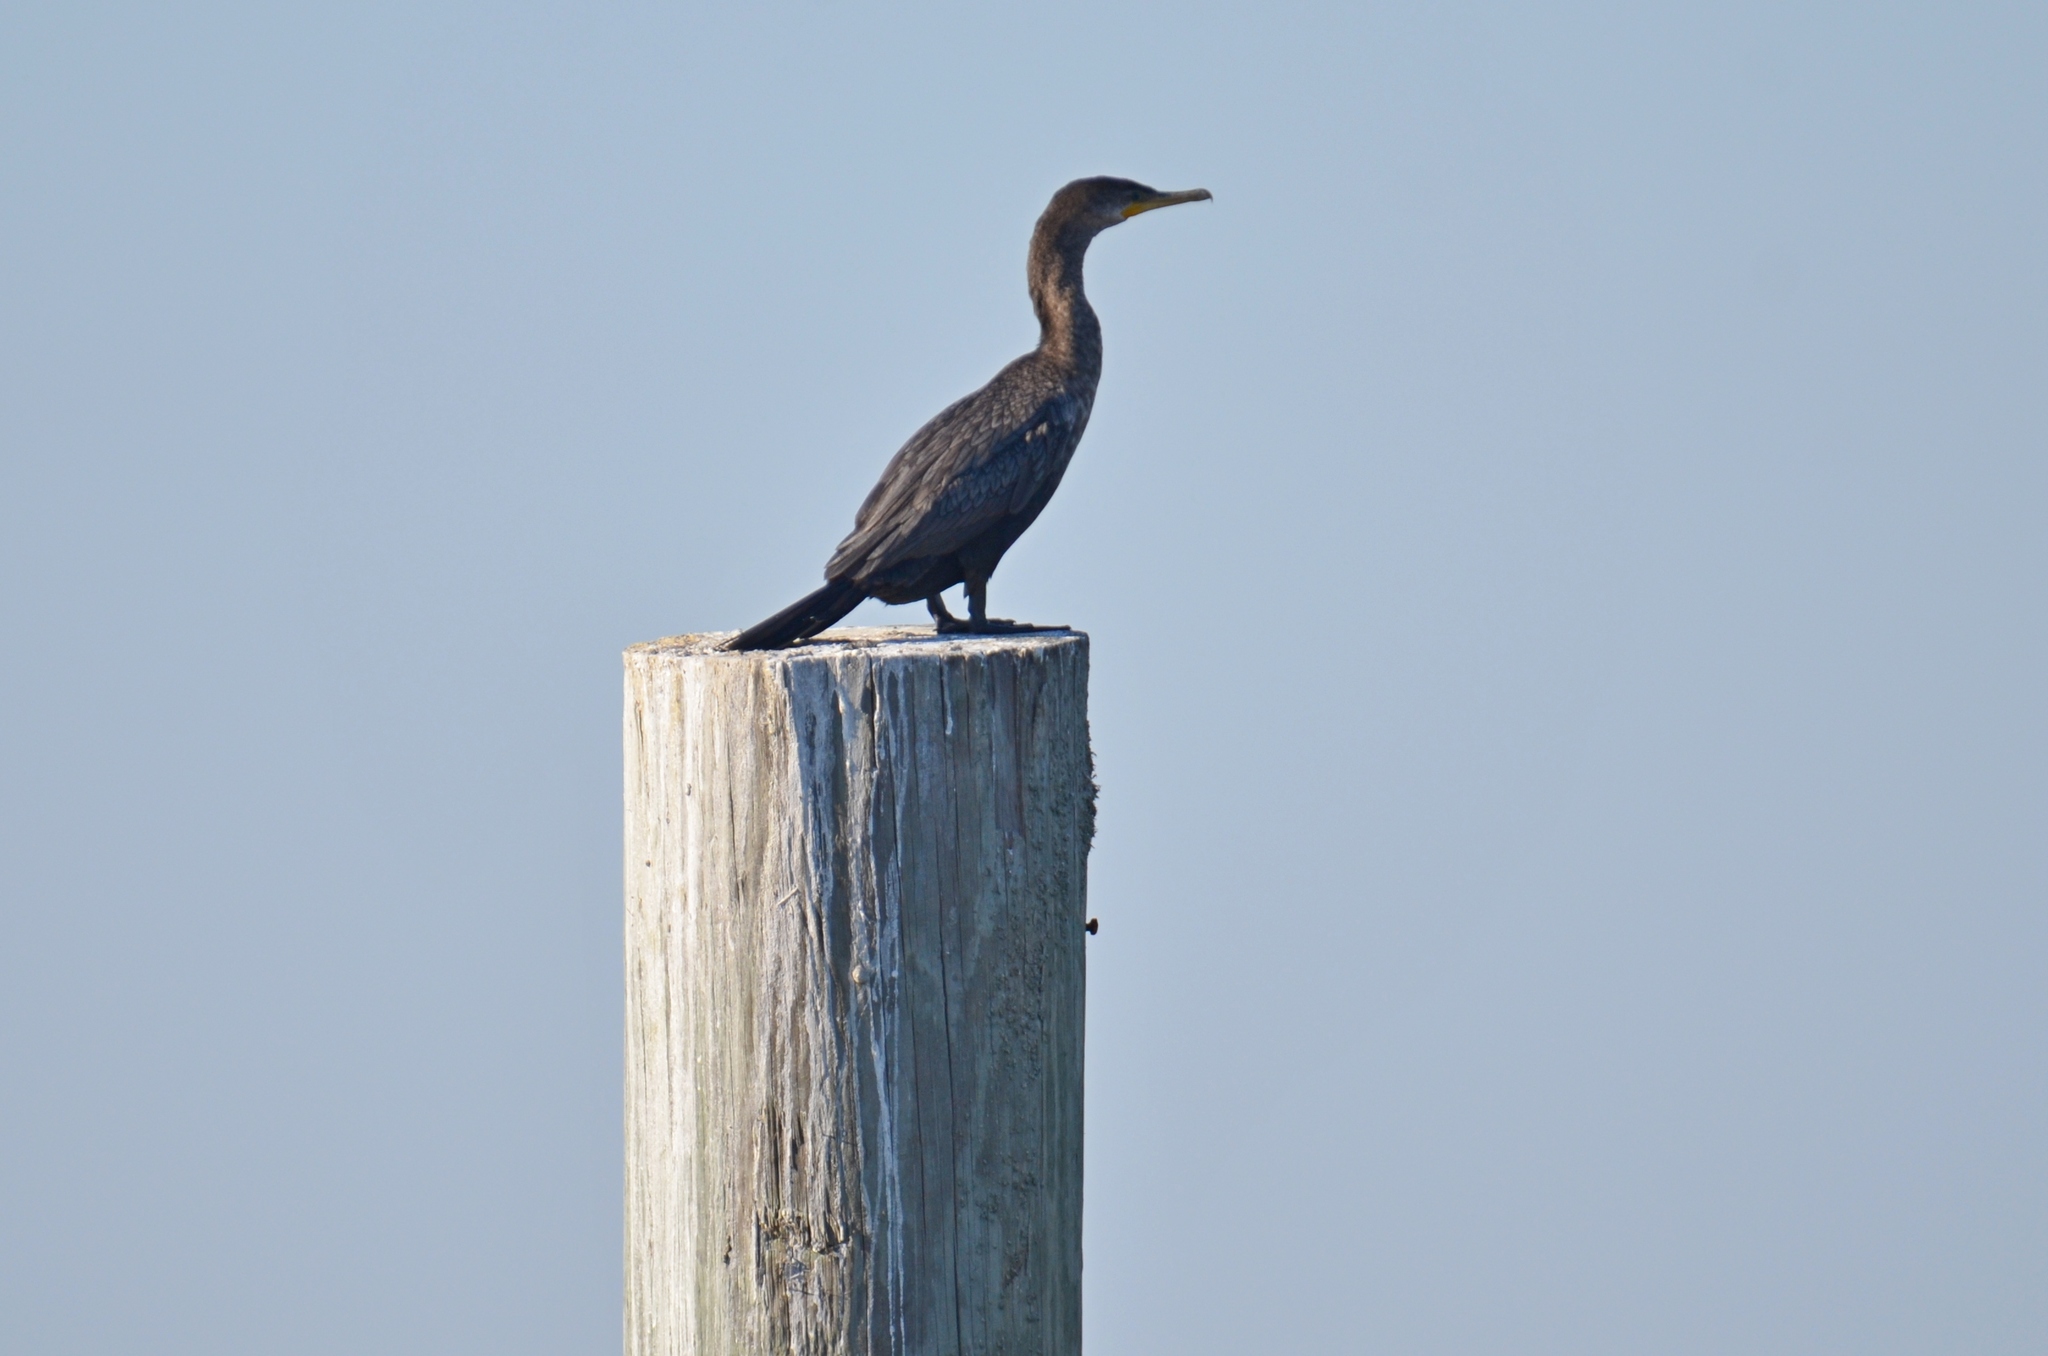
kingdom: Animalia
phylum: Chordata
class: Aves
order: Suliformes
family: Phalacrocoracidae
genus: Phalacrocorax
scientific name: Phalacrocorax brasilianus
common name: Neotropic cormorant
